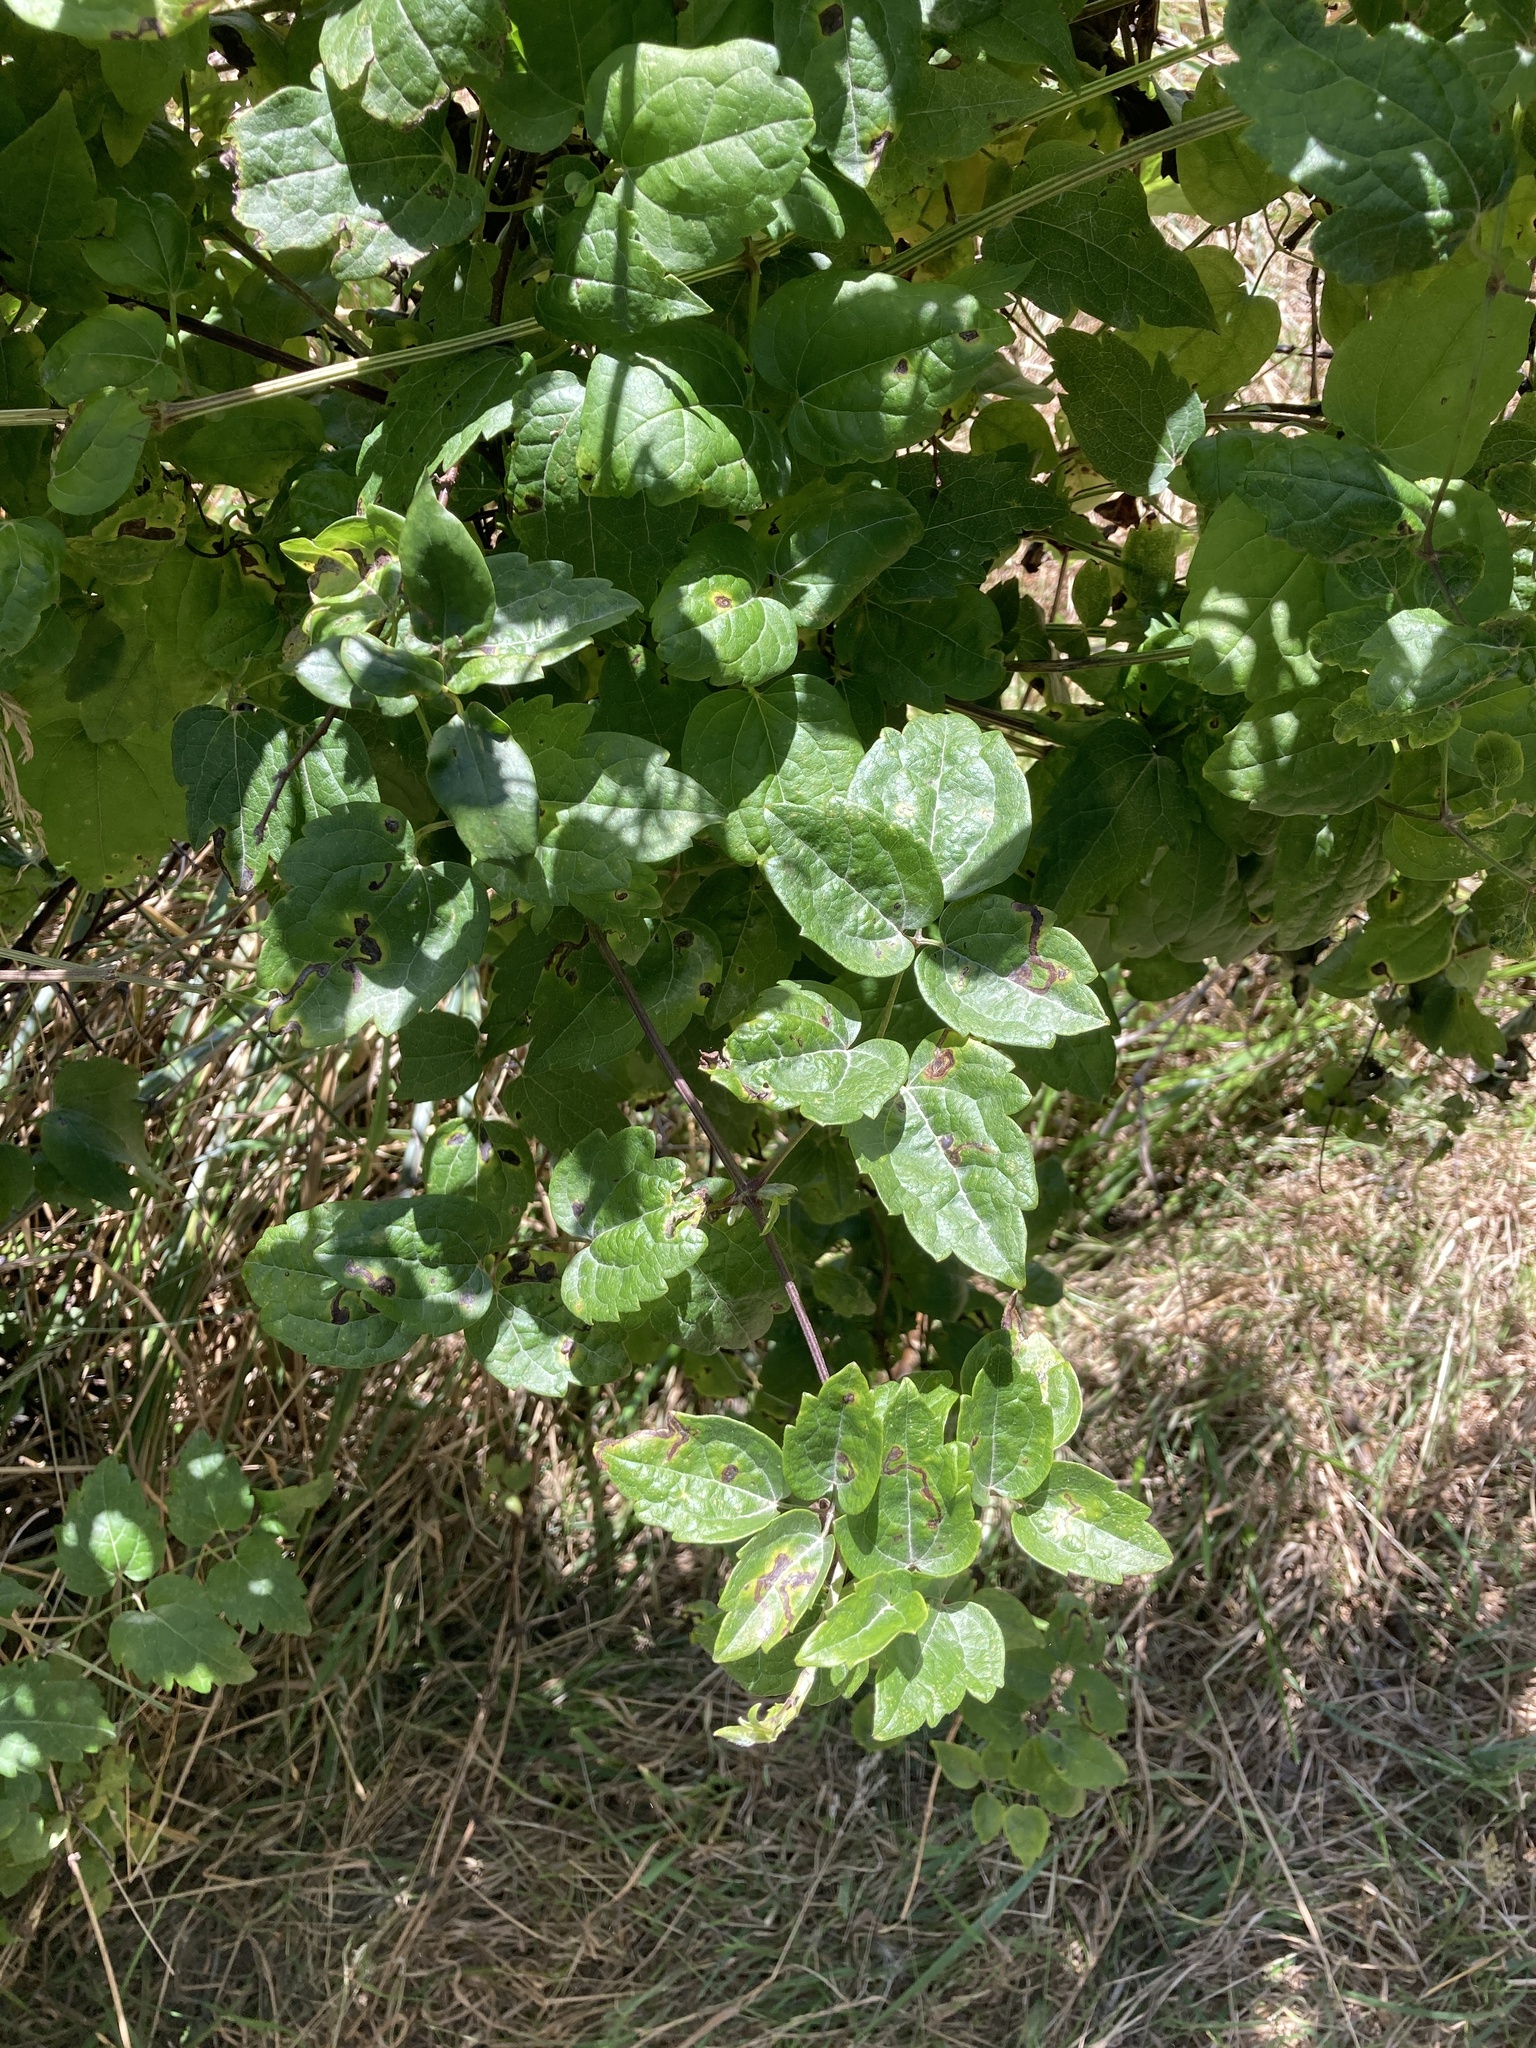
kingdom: Plantae
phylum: Tracheophyta
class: Magnoliopsida
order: Ranunculales
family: Ranunculaceae
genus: Clematis
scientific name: Clematis vitalba
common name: Evergreen clematis
